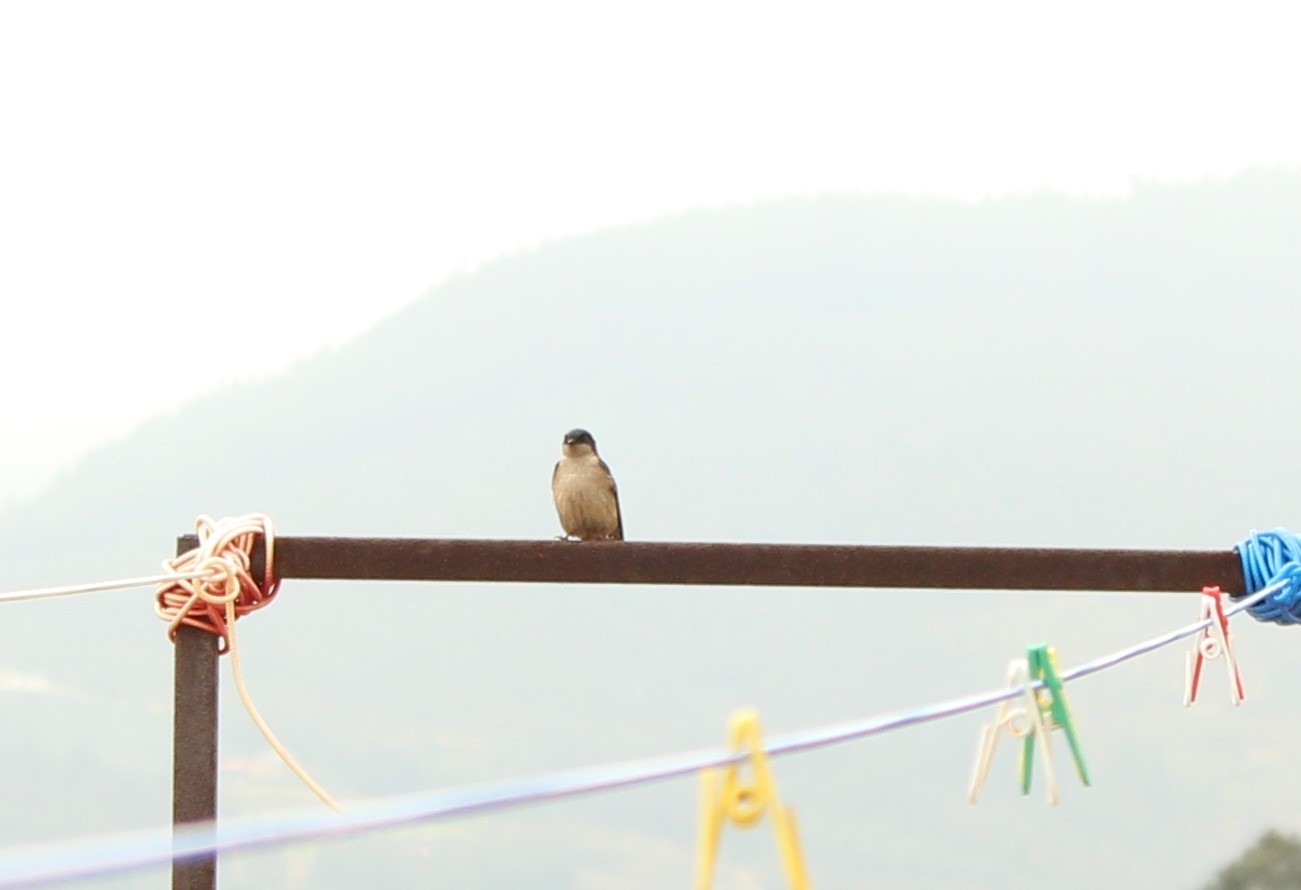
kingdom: Animalia
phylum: Chordata
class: Aves
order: Passeriformes
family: Hirundinidae
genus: Notiochelidon
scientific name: Notiochelidon murina
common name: Brown-bellied swallow
